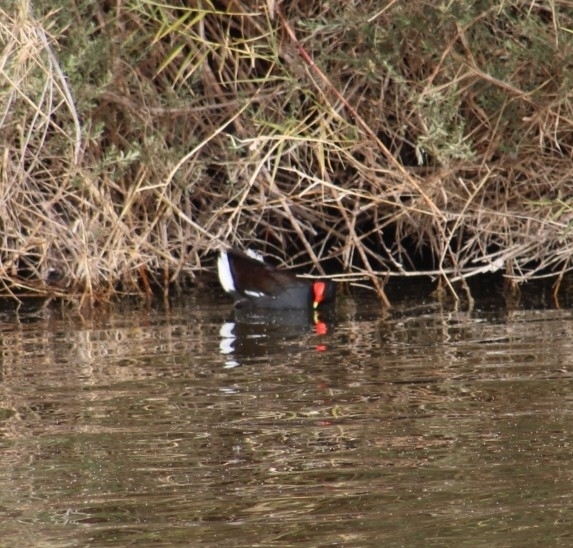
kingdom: Animalia
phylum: Chordata
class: Aves
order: Gruiformes
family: Rallidae
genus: Gallinula
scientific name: Gallinula chloropus
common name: Common moorhen
